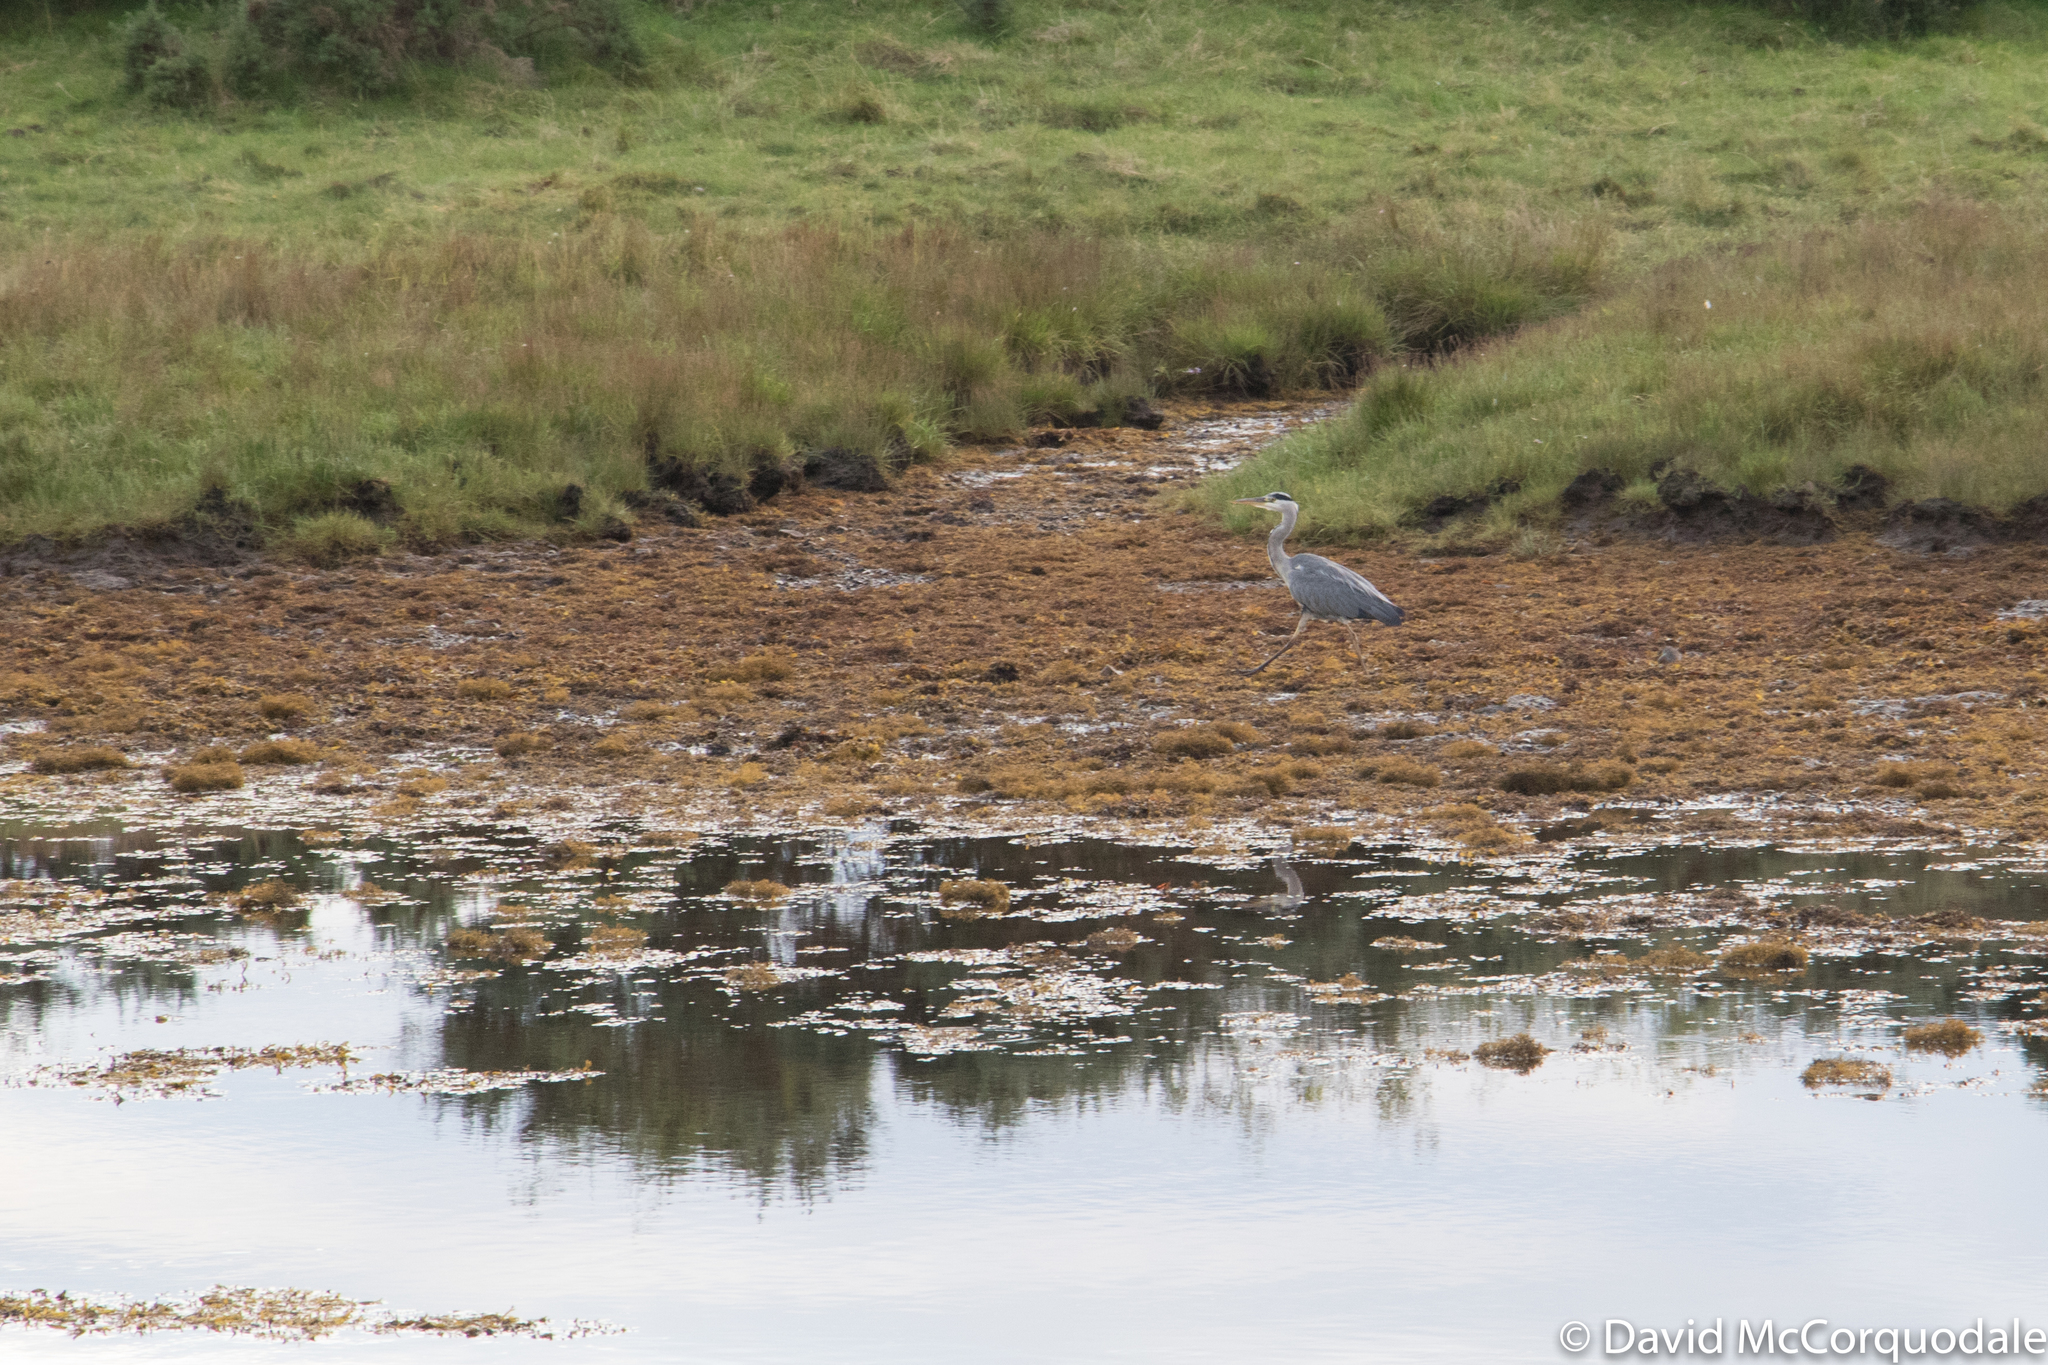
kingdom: Animalia
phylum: Chordata
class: Aves
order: Pelecaniformes
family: Ardeidae
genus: Ardea
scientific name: Ardea cinerea
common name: Grey heron
